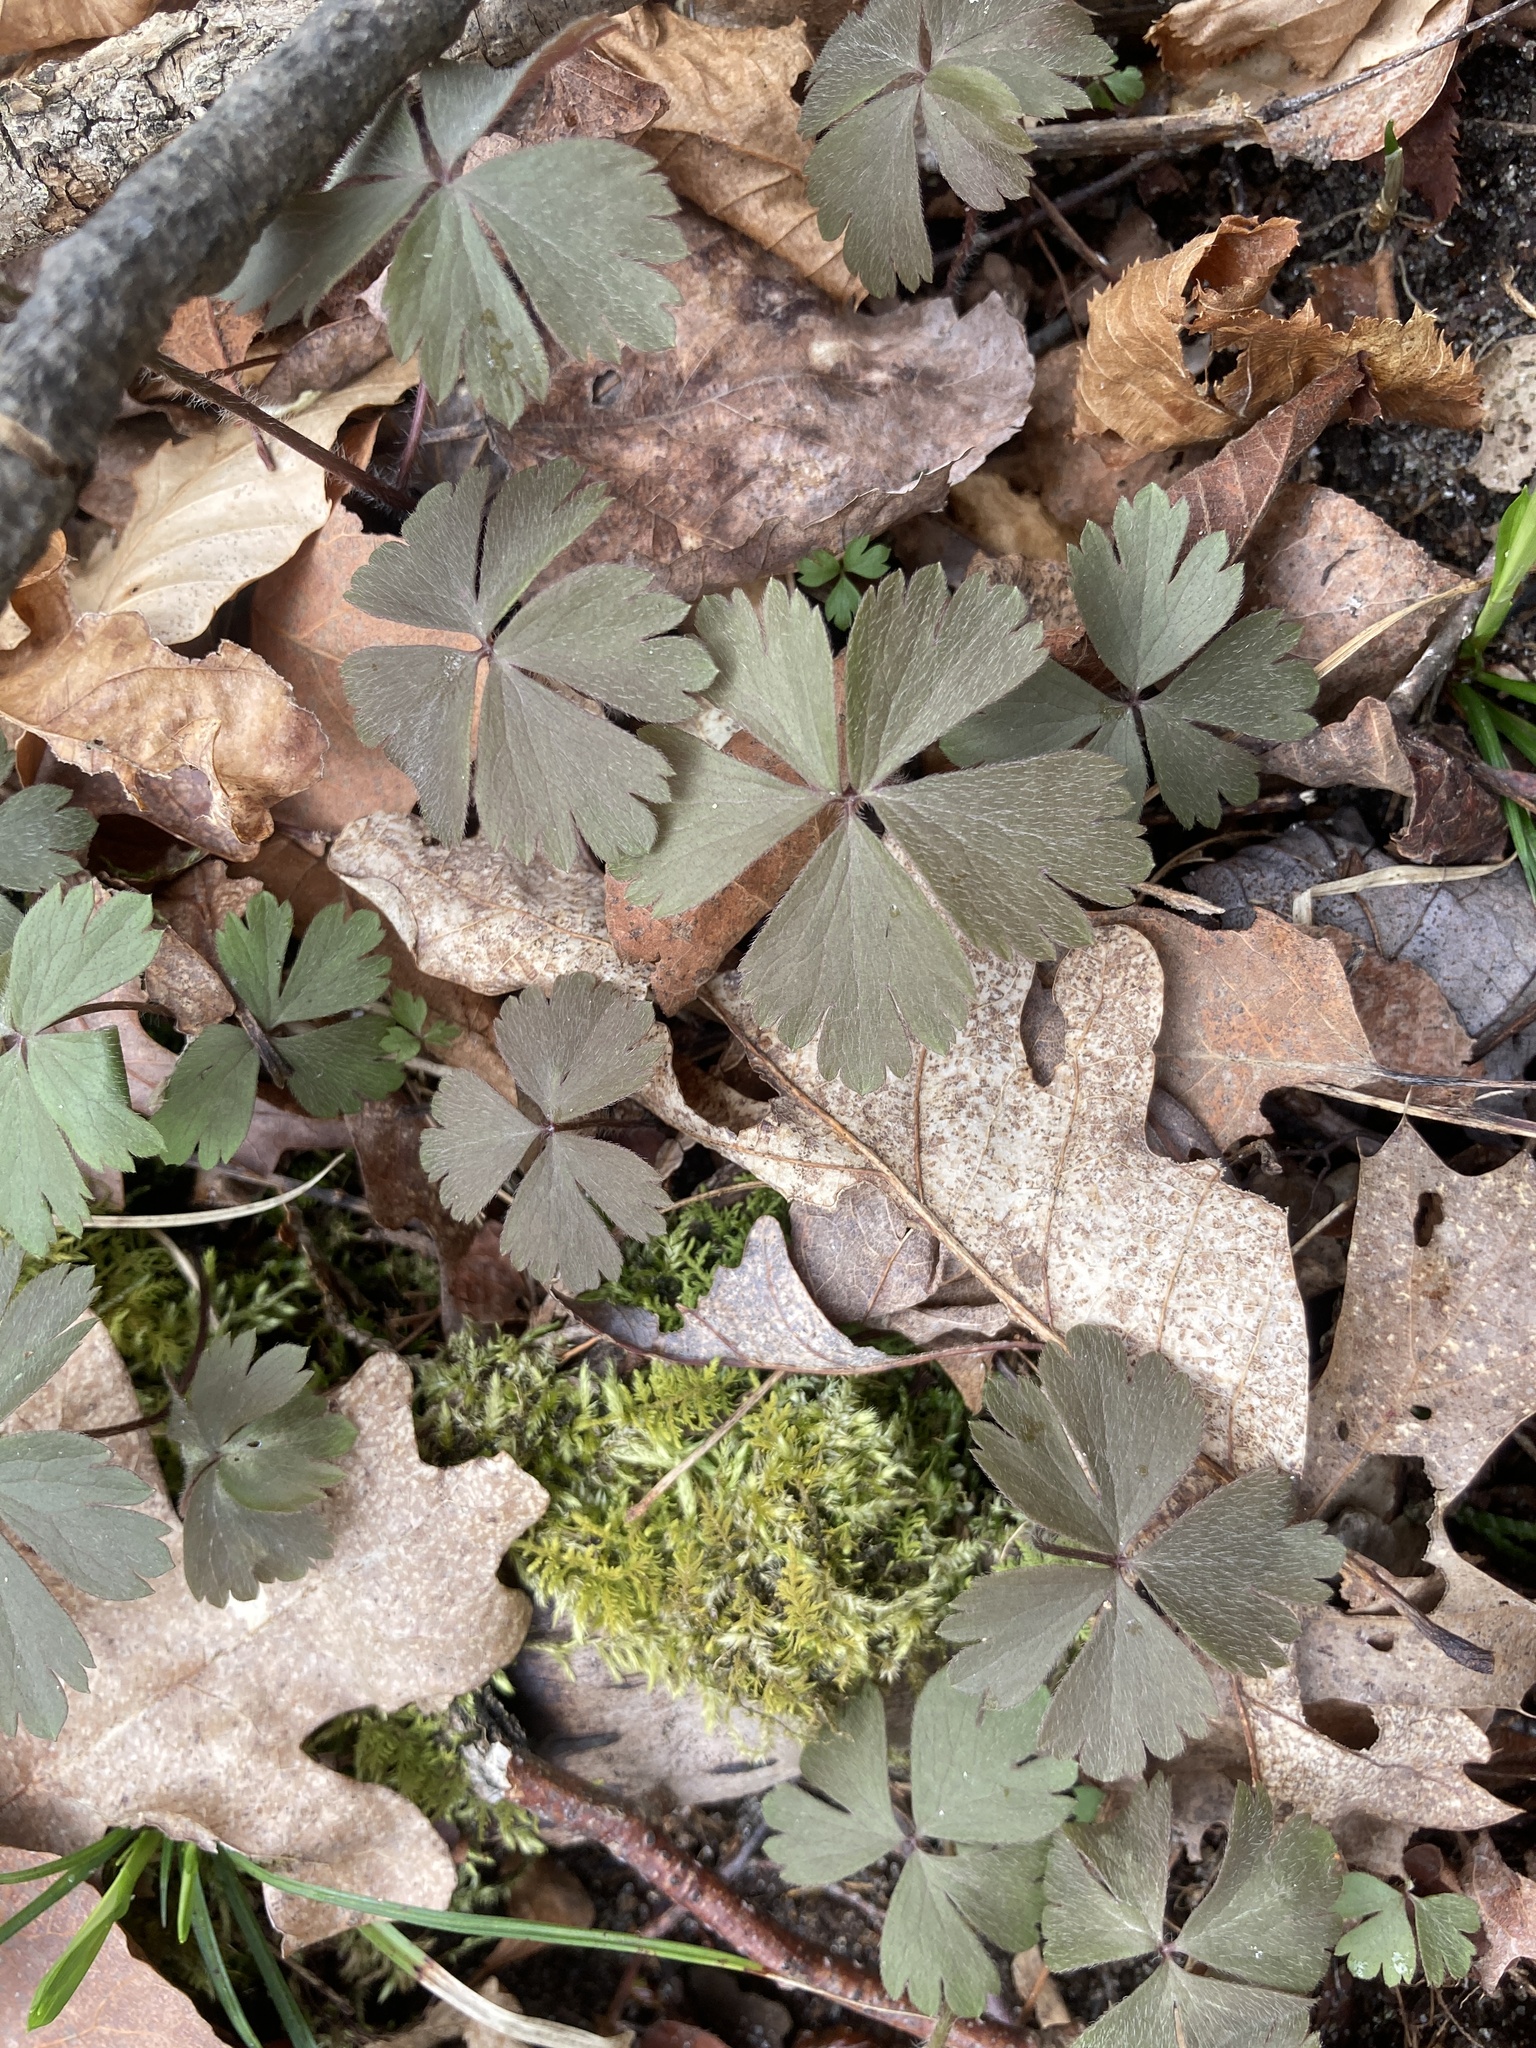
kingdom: Plantae
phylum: Tracheophyta
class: Magnoliopsida
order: Ranunculales
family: Ranunculaceae
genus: Anemone
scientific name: Anemone quinquefolia
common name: Wood anemone
